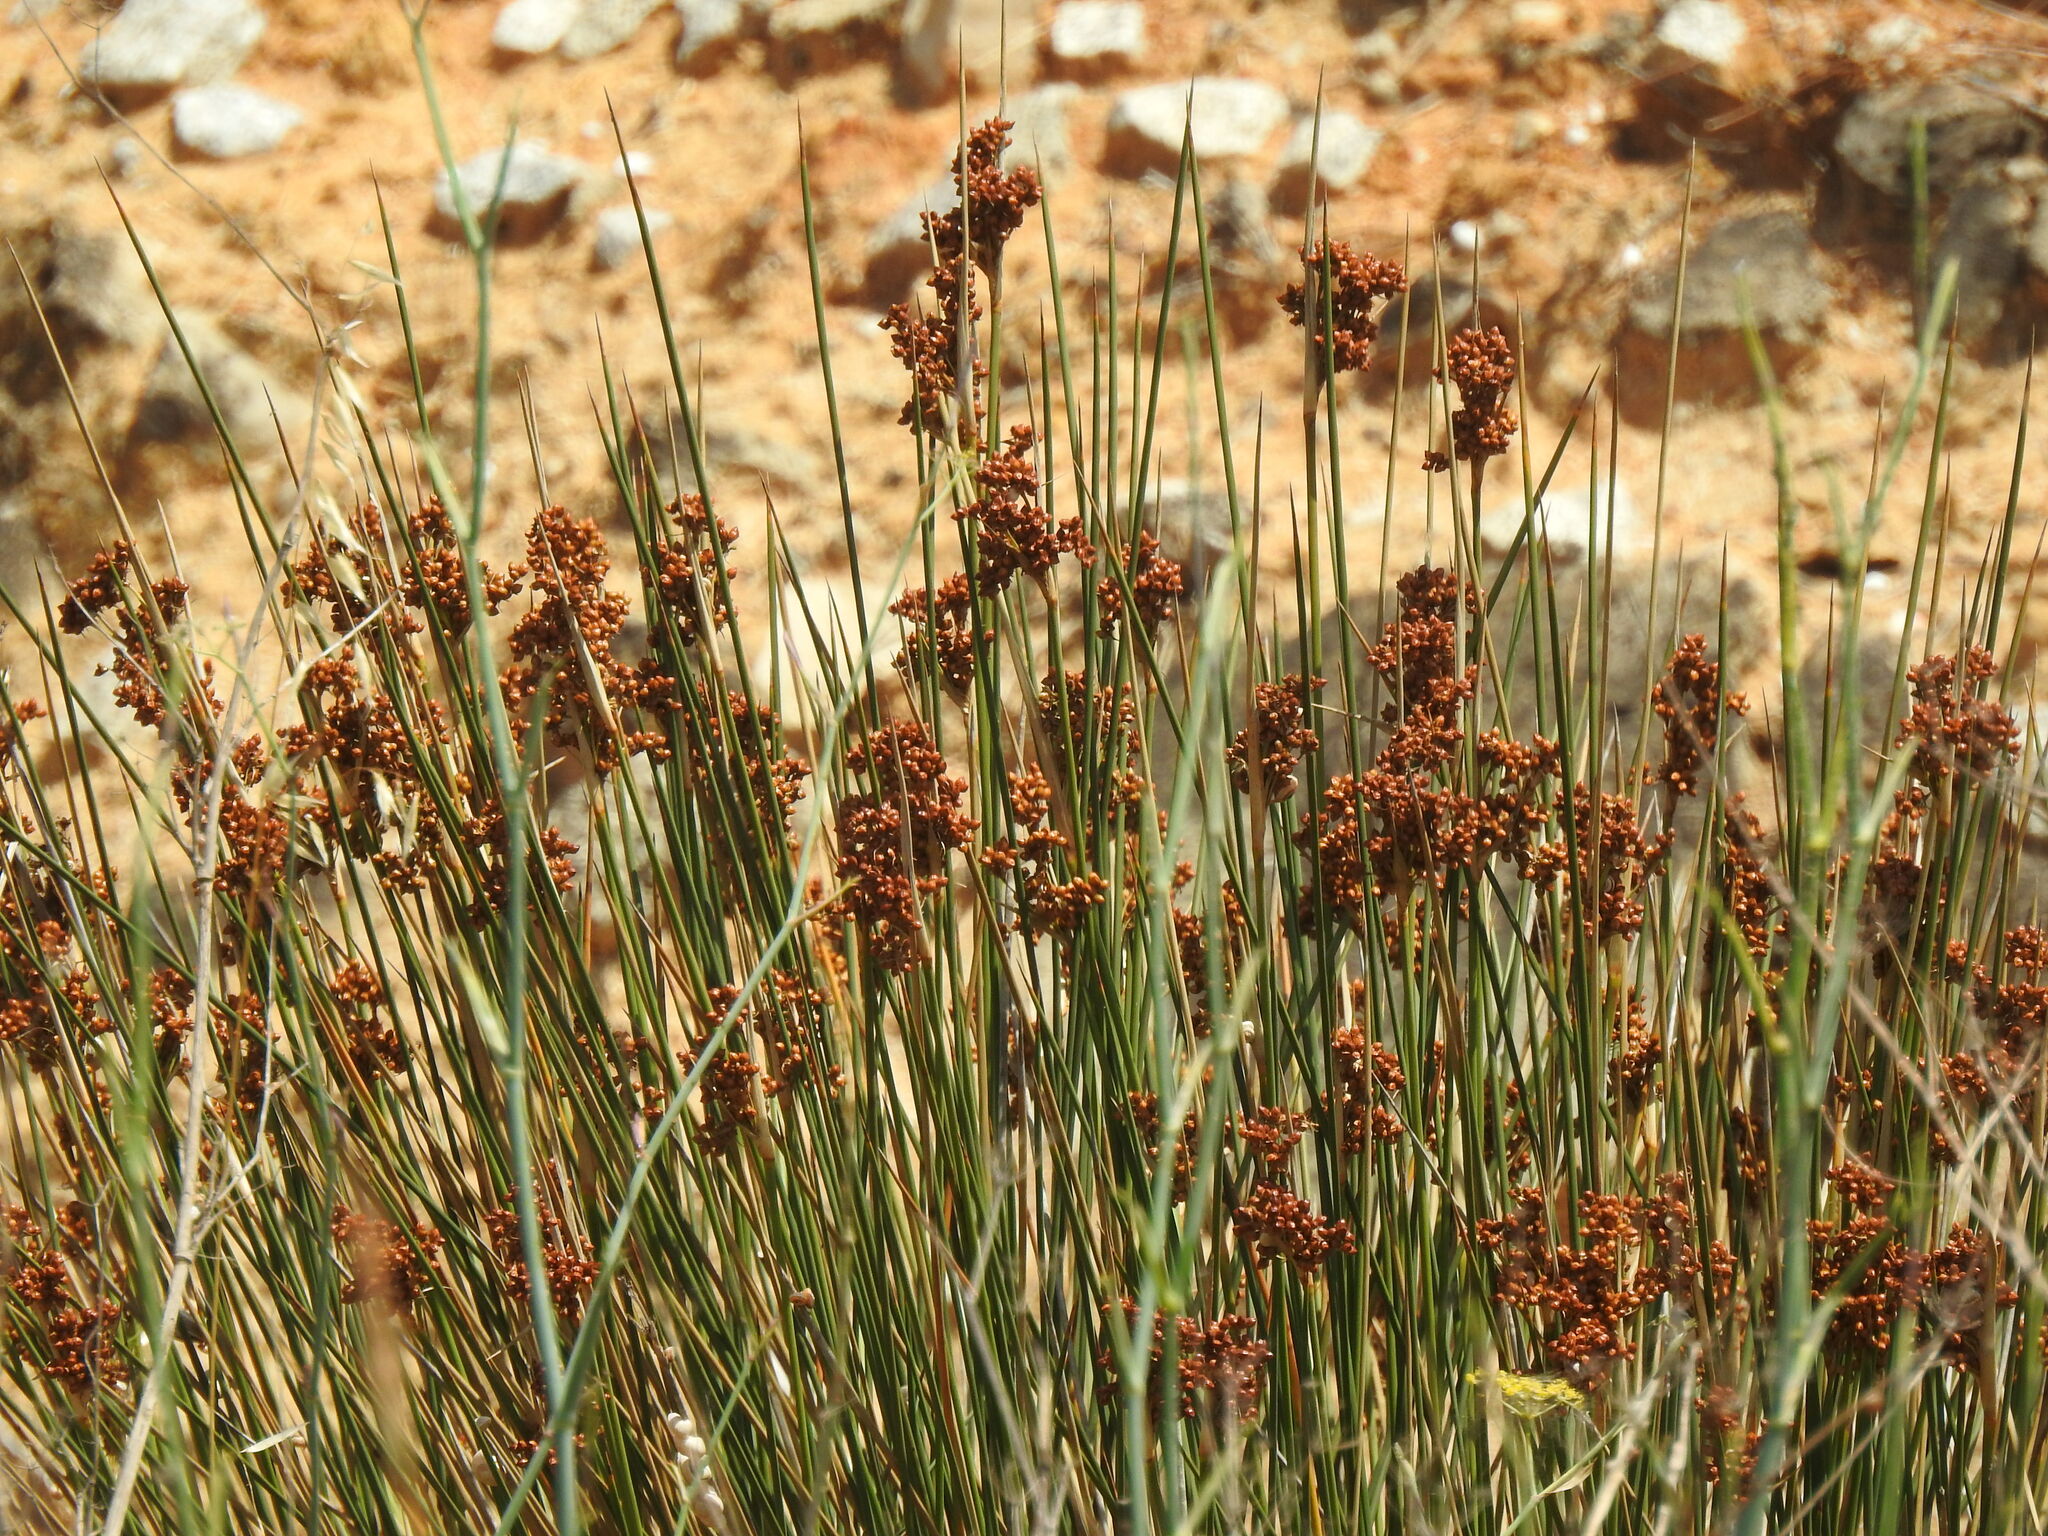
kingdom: Plantae
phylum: Tracheophyta
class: Liliopsida
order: Poales
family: Juncaceae
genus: Juncus
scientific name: Juncus acutus
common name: Sharp rush
